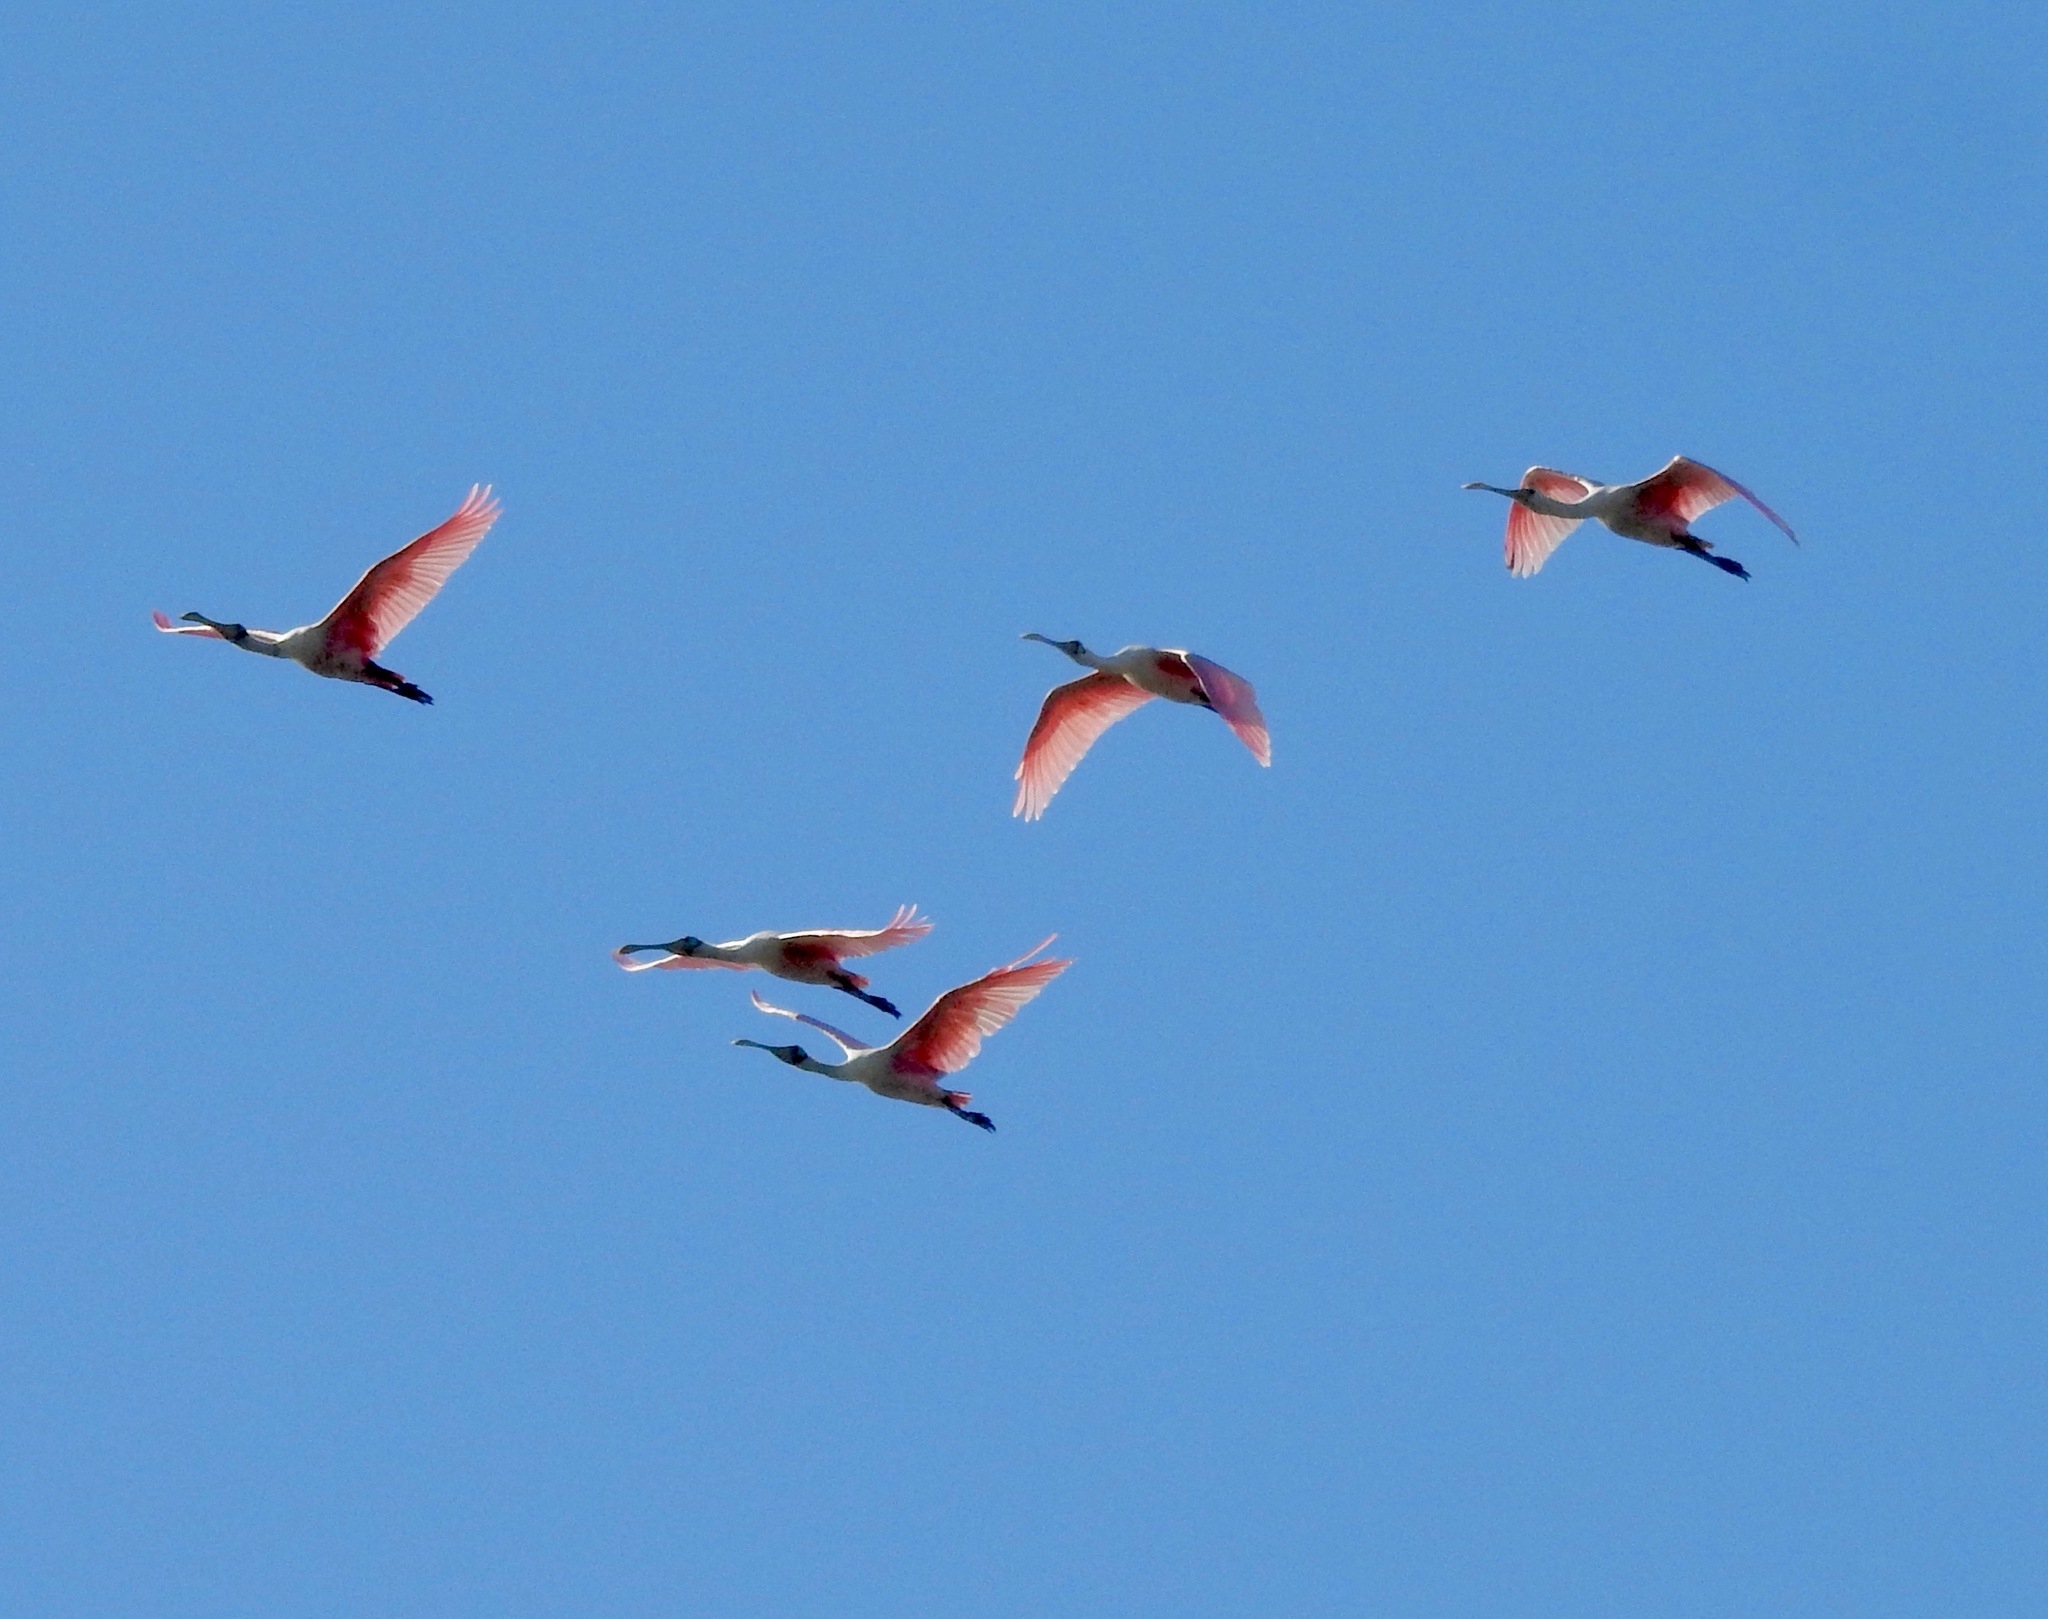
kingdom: Animalia
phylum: Chordata
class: Aves
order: Pelecaniformes
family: Threskiornithidae
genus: Platalea
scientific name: Platalea ajaja
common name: Roseate spoonbill
